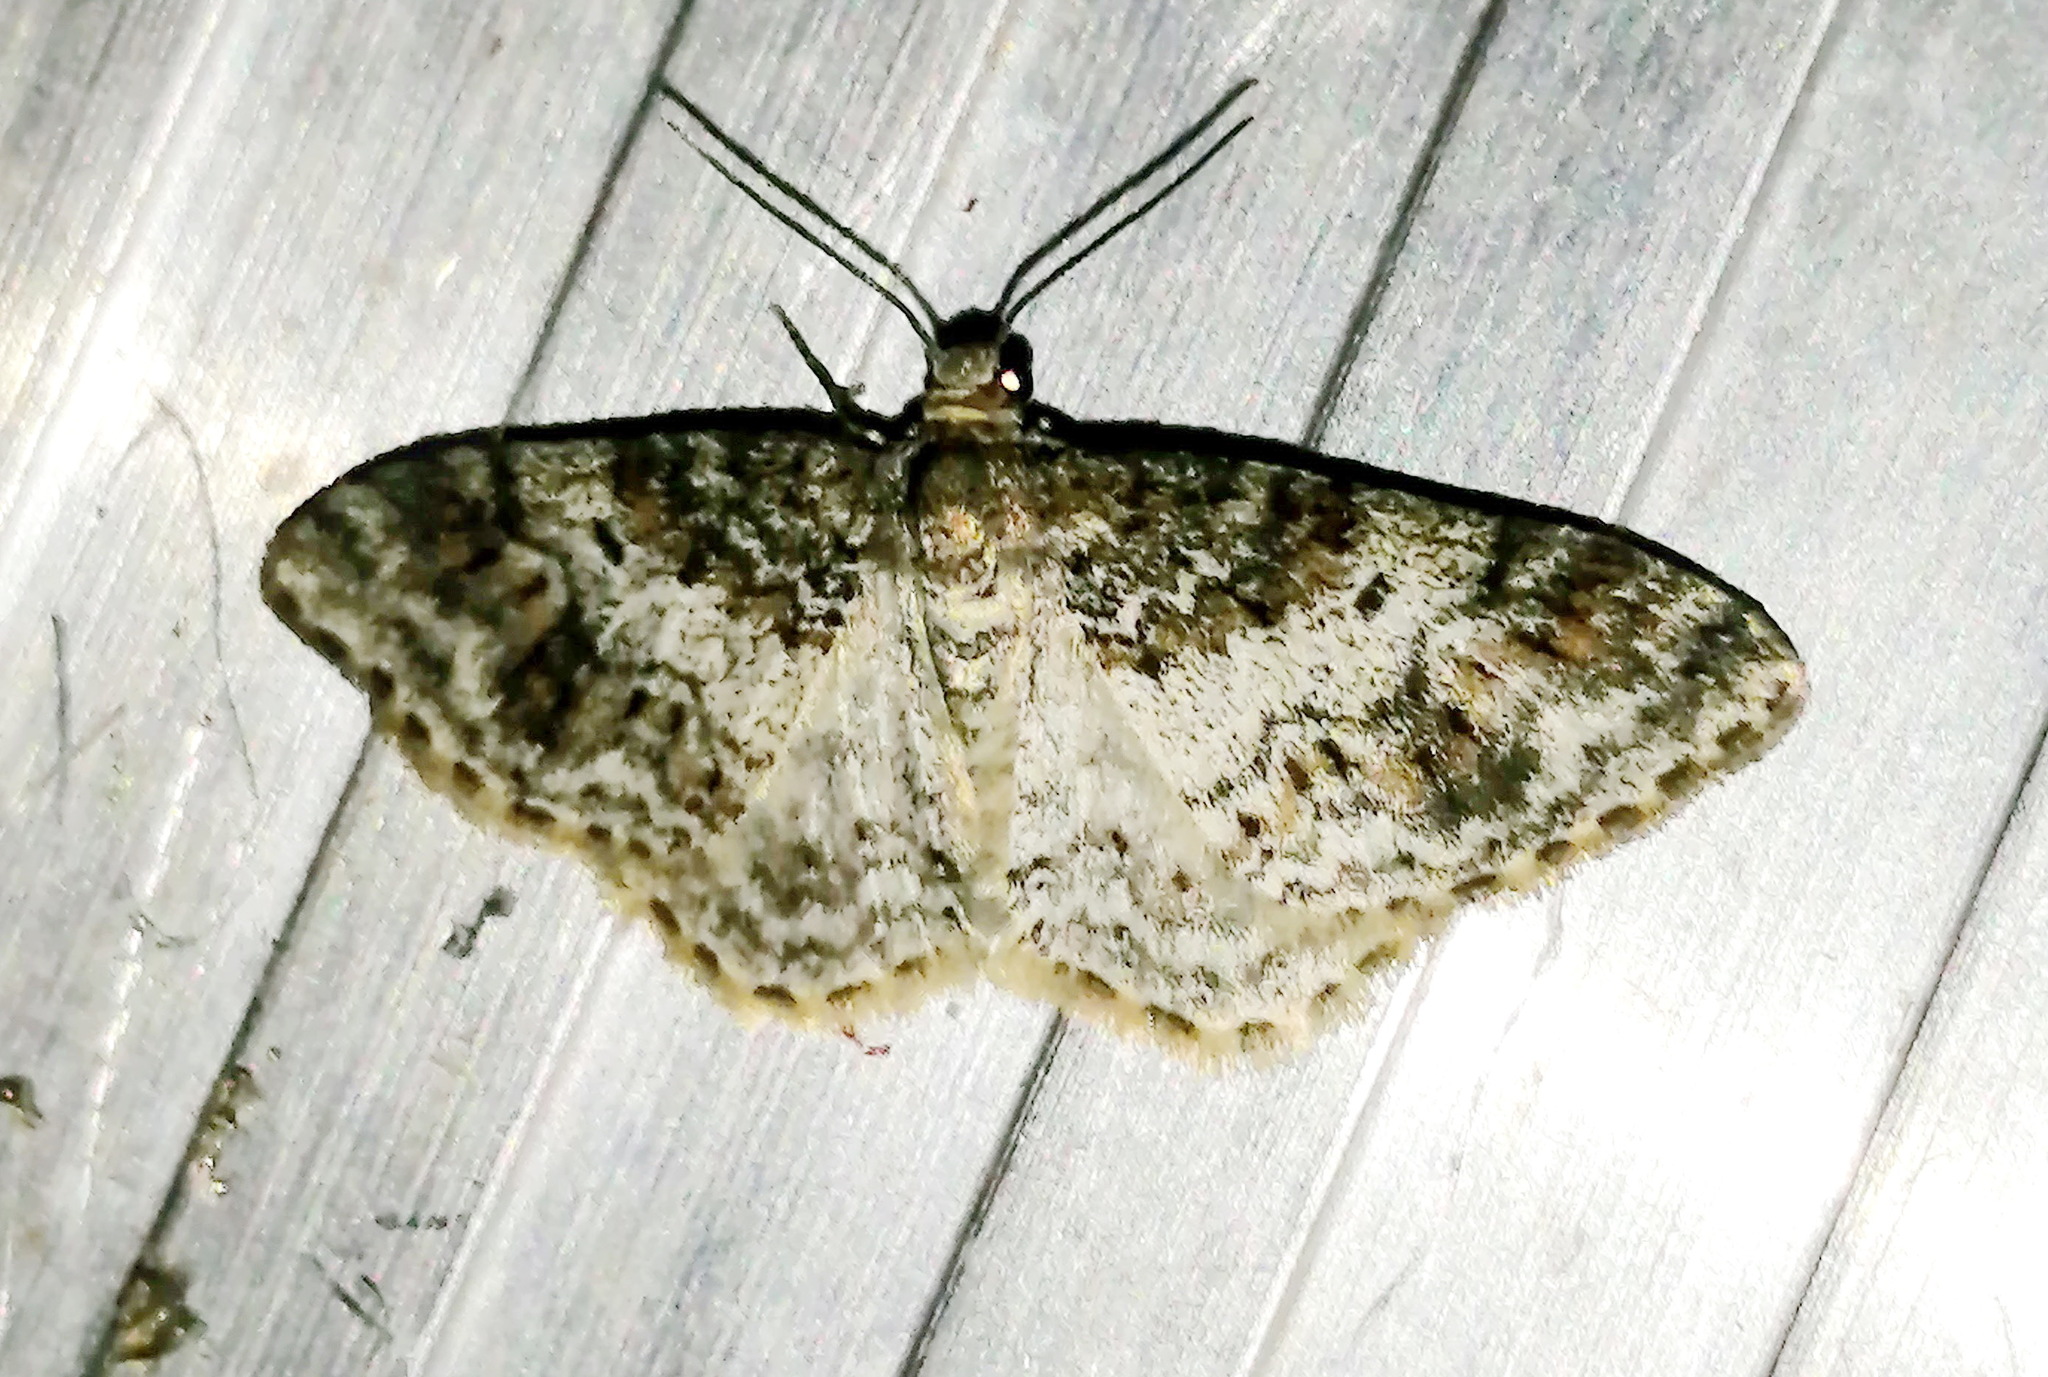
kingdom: Animalia
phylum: Arthropoda
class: Insecta
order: Lepidoptera
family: Geometridae
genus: Hydrelia
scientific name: Hydrelia inornata
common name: Unadorned carpet moth
